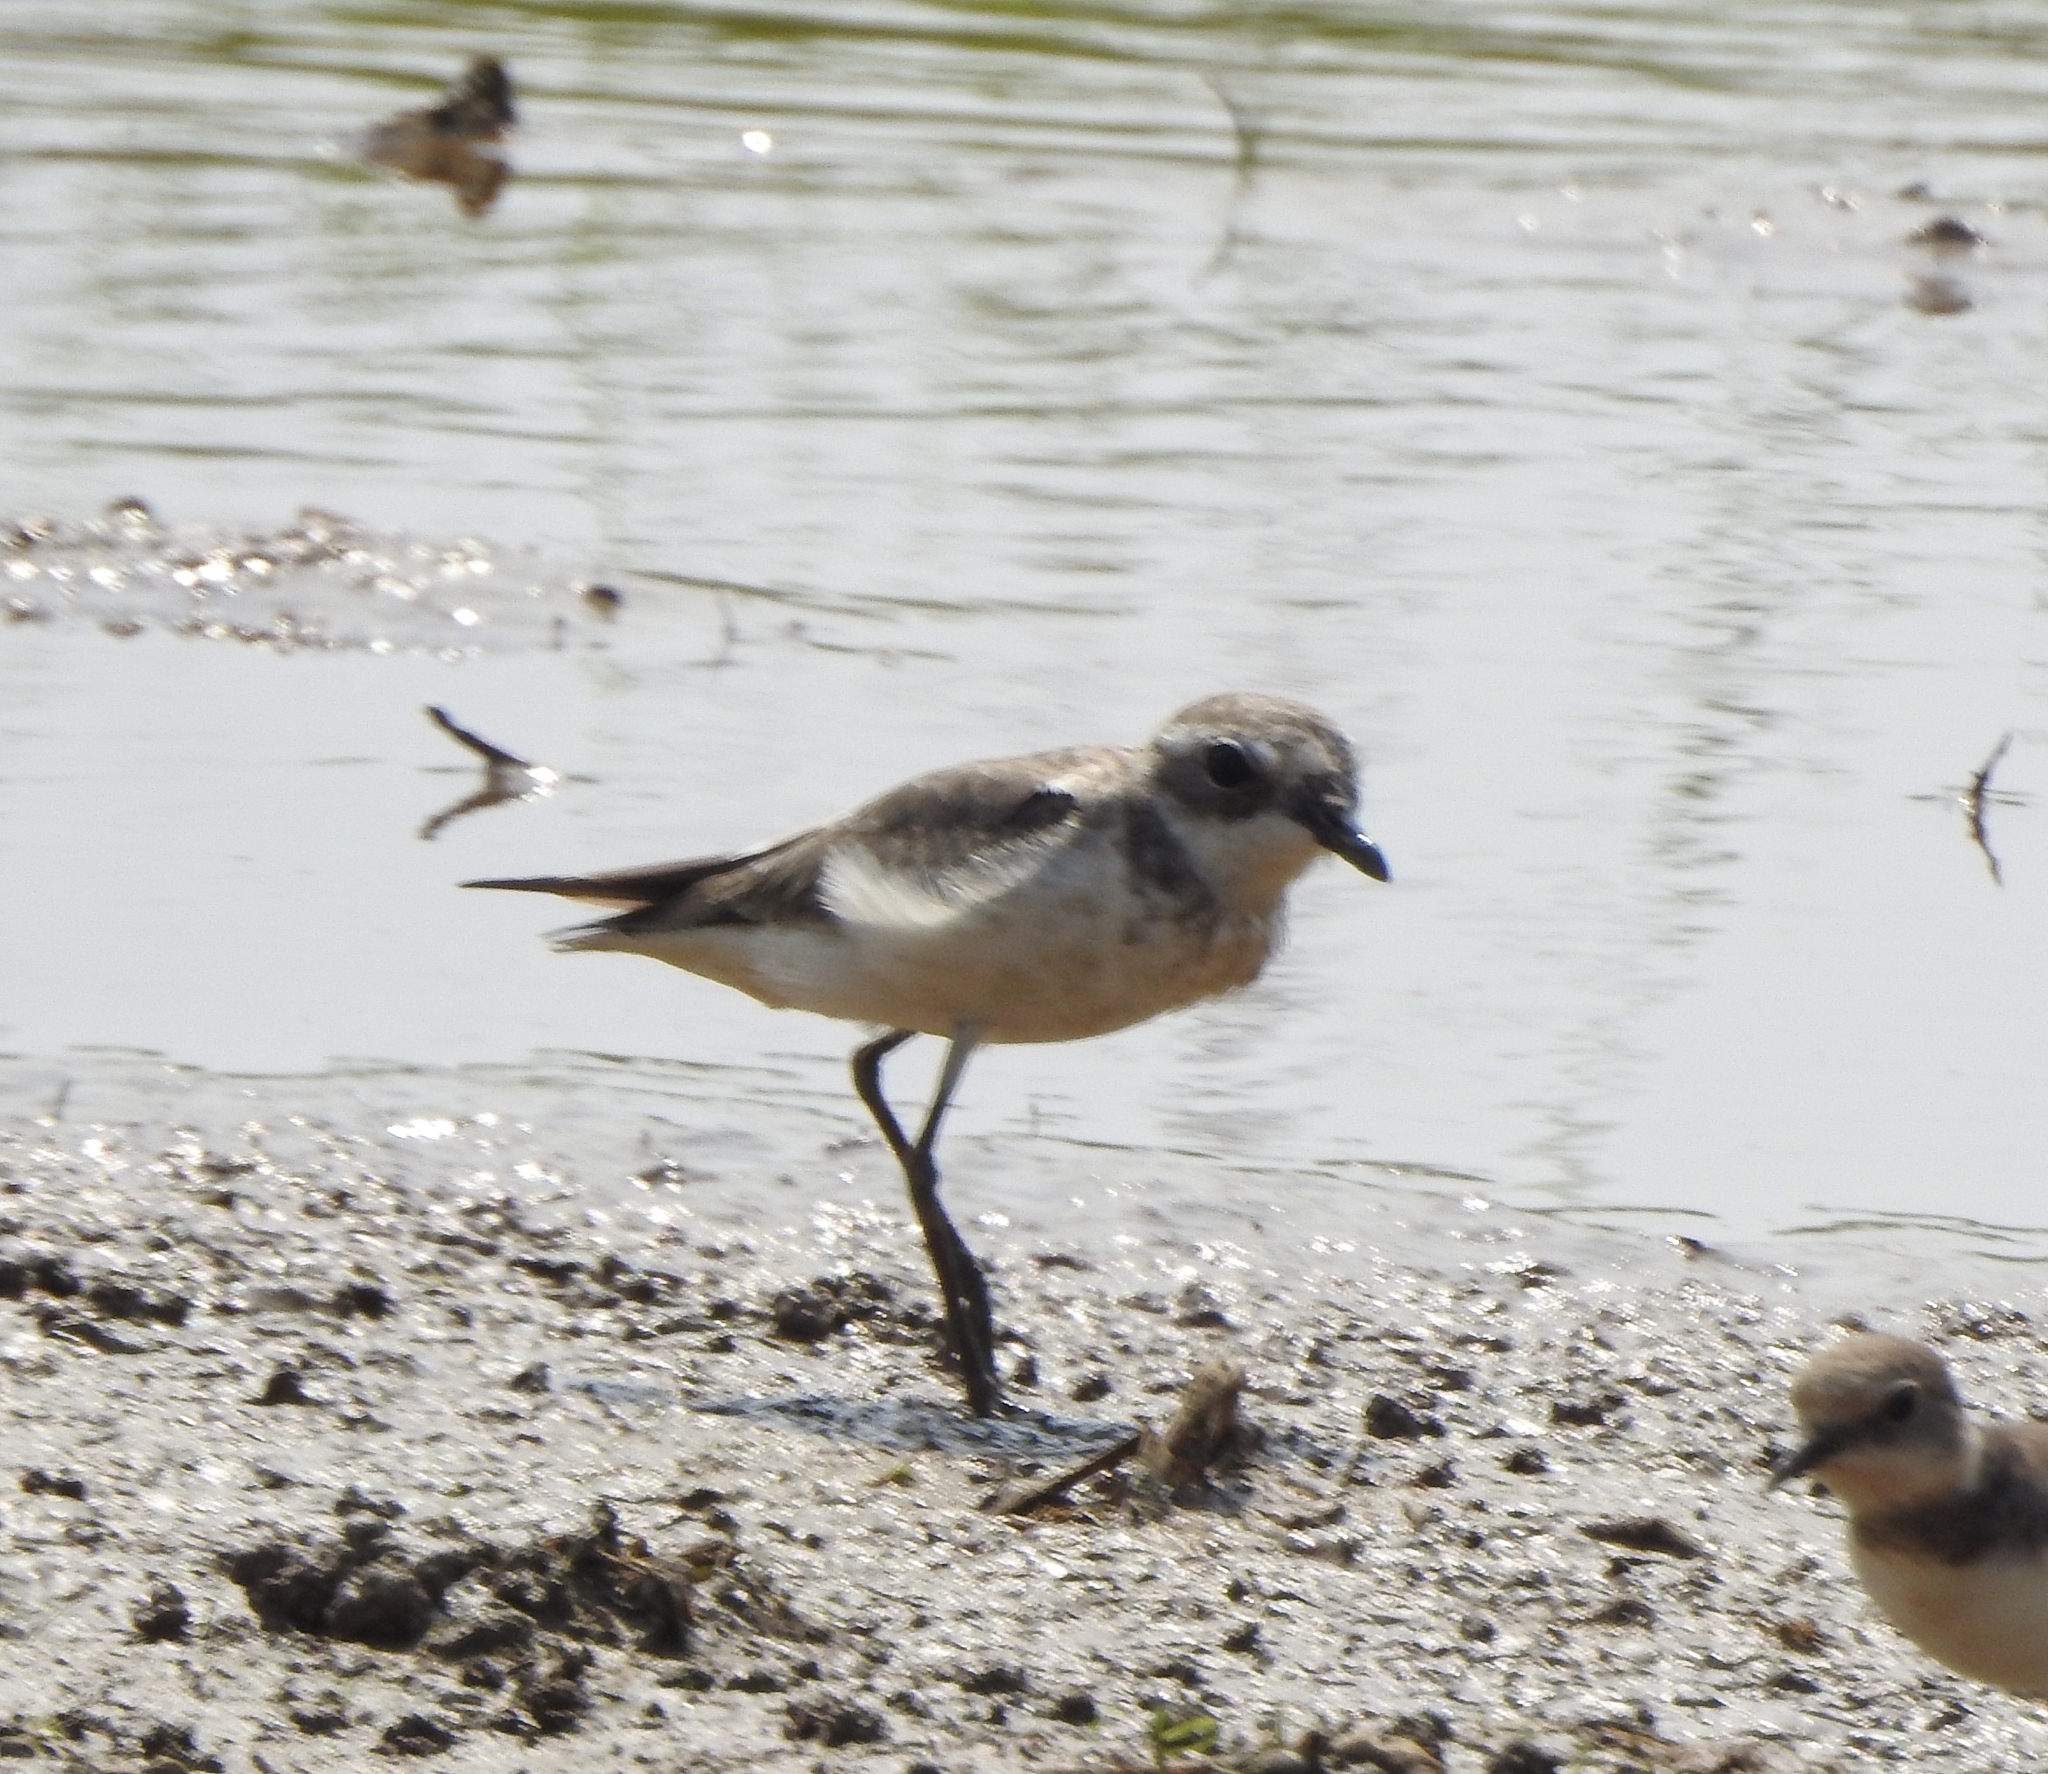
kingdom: Animalia
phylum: Chordata
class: Aves
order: Charadriiformes
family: Charadriidae
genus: Anarhynchus
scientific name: Anarhynchus
